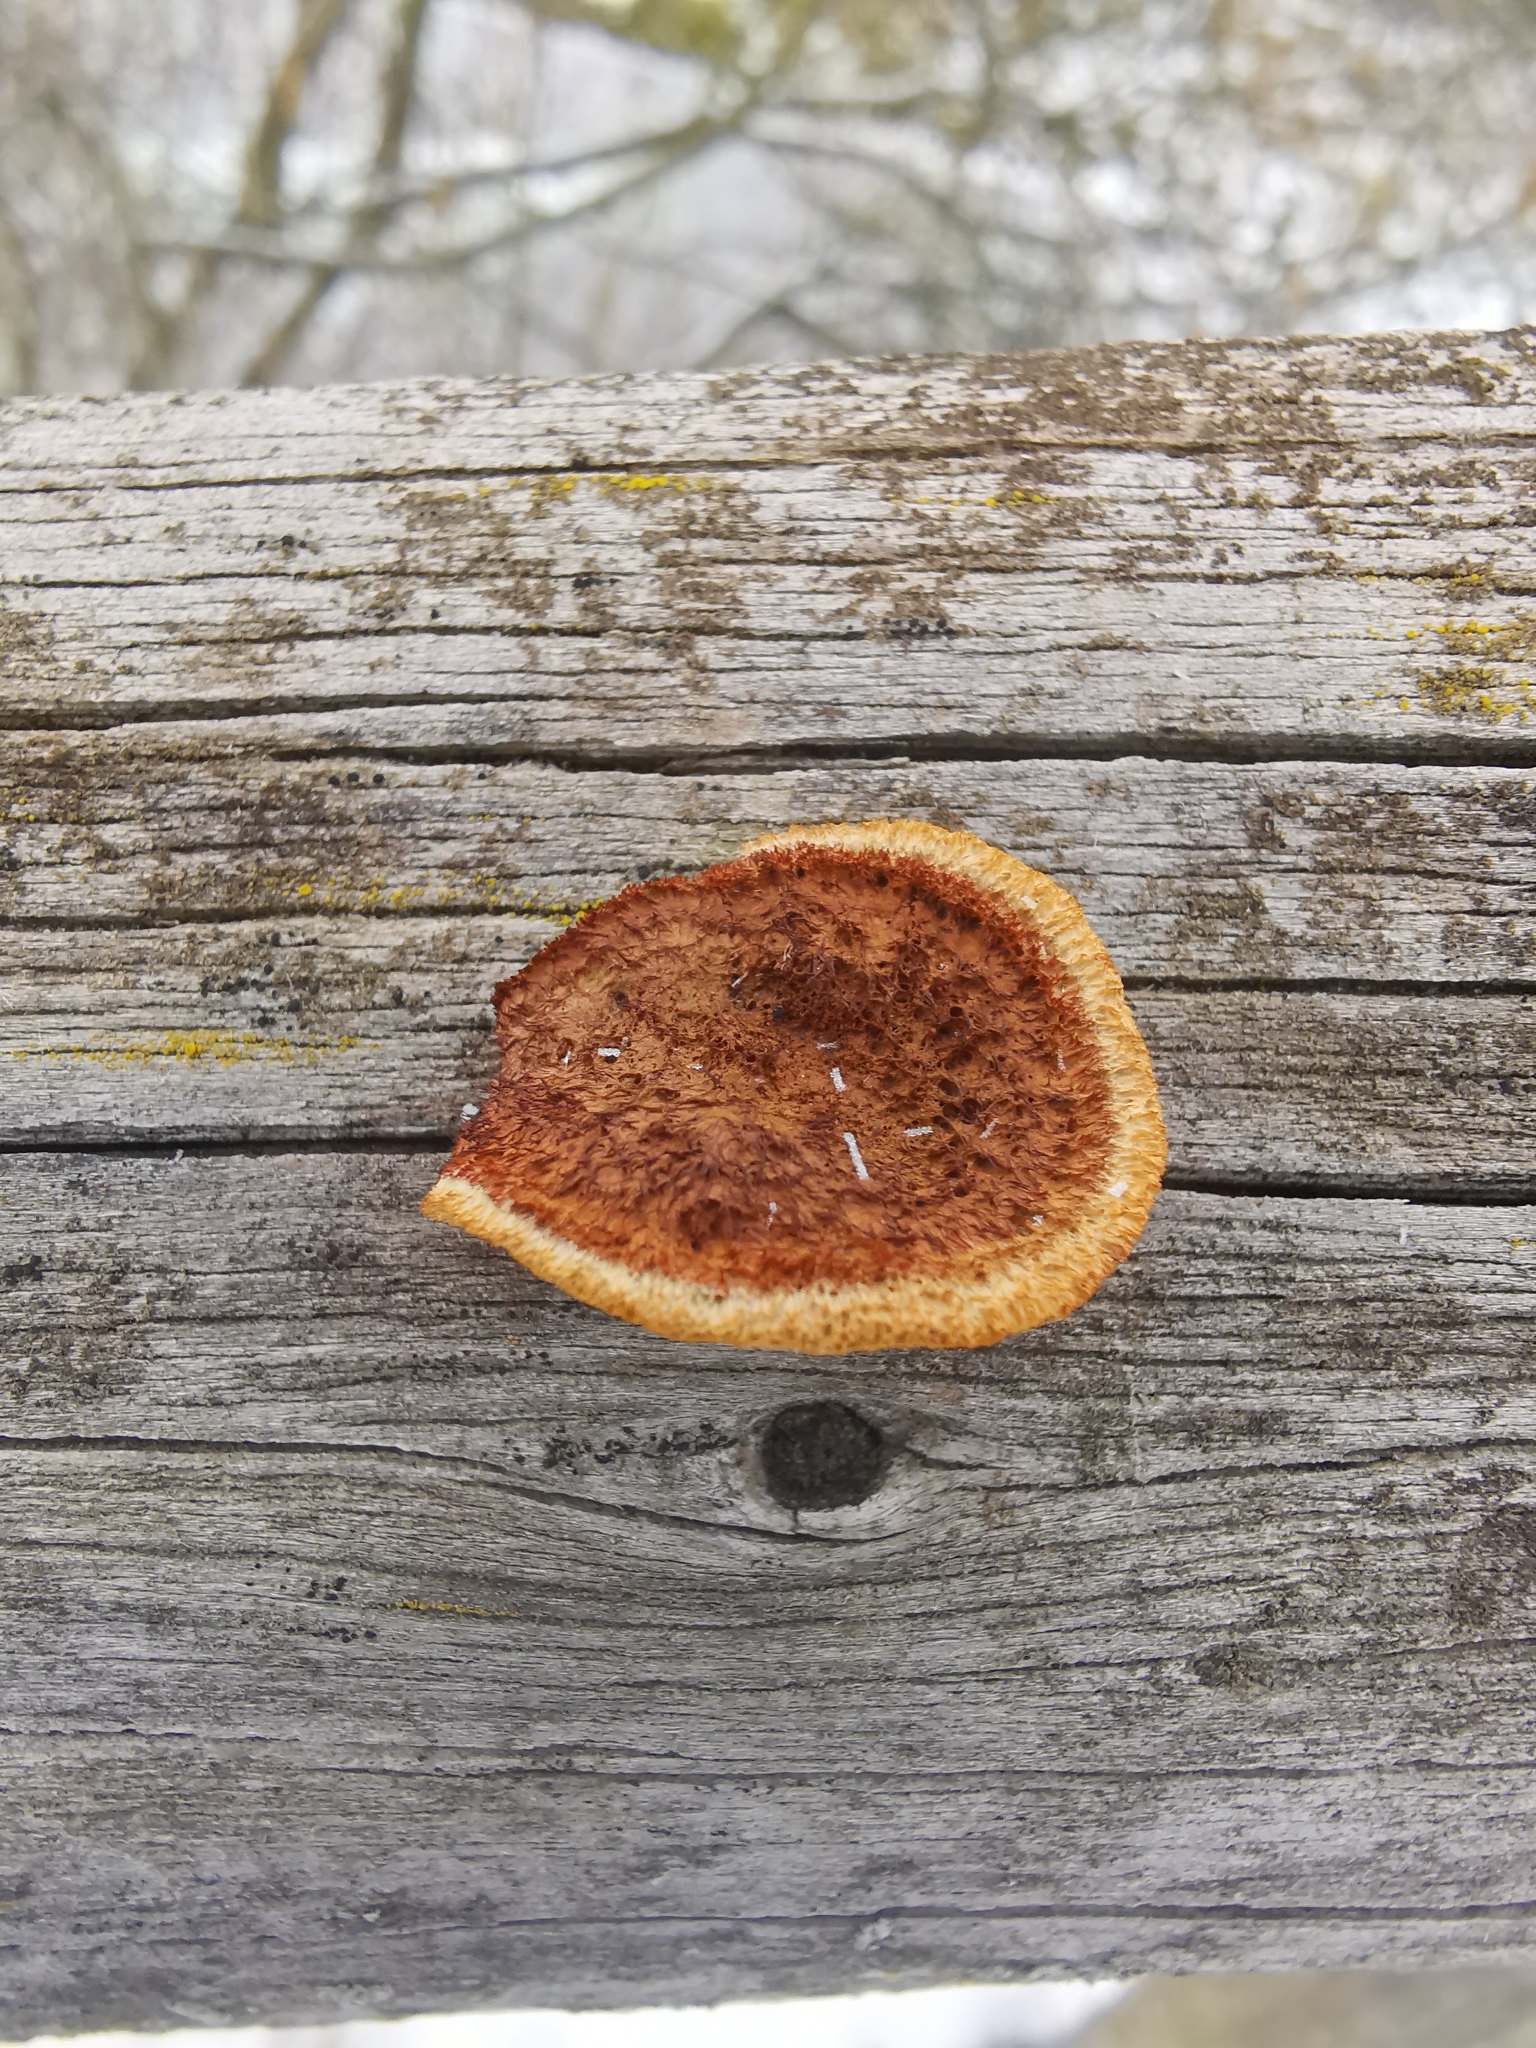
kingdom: Fungi
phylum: Basidiomycota
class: Agaricomycetes
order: Gloeophyllales
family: Gloeophyllaceae
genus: Gloeophyllum
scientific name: Gloeophyllum sepiarium
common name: Conifer mazegill
